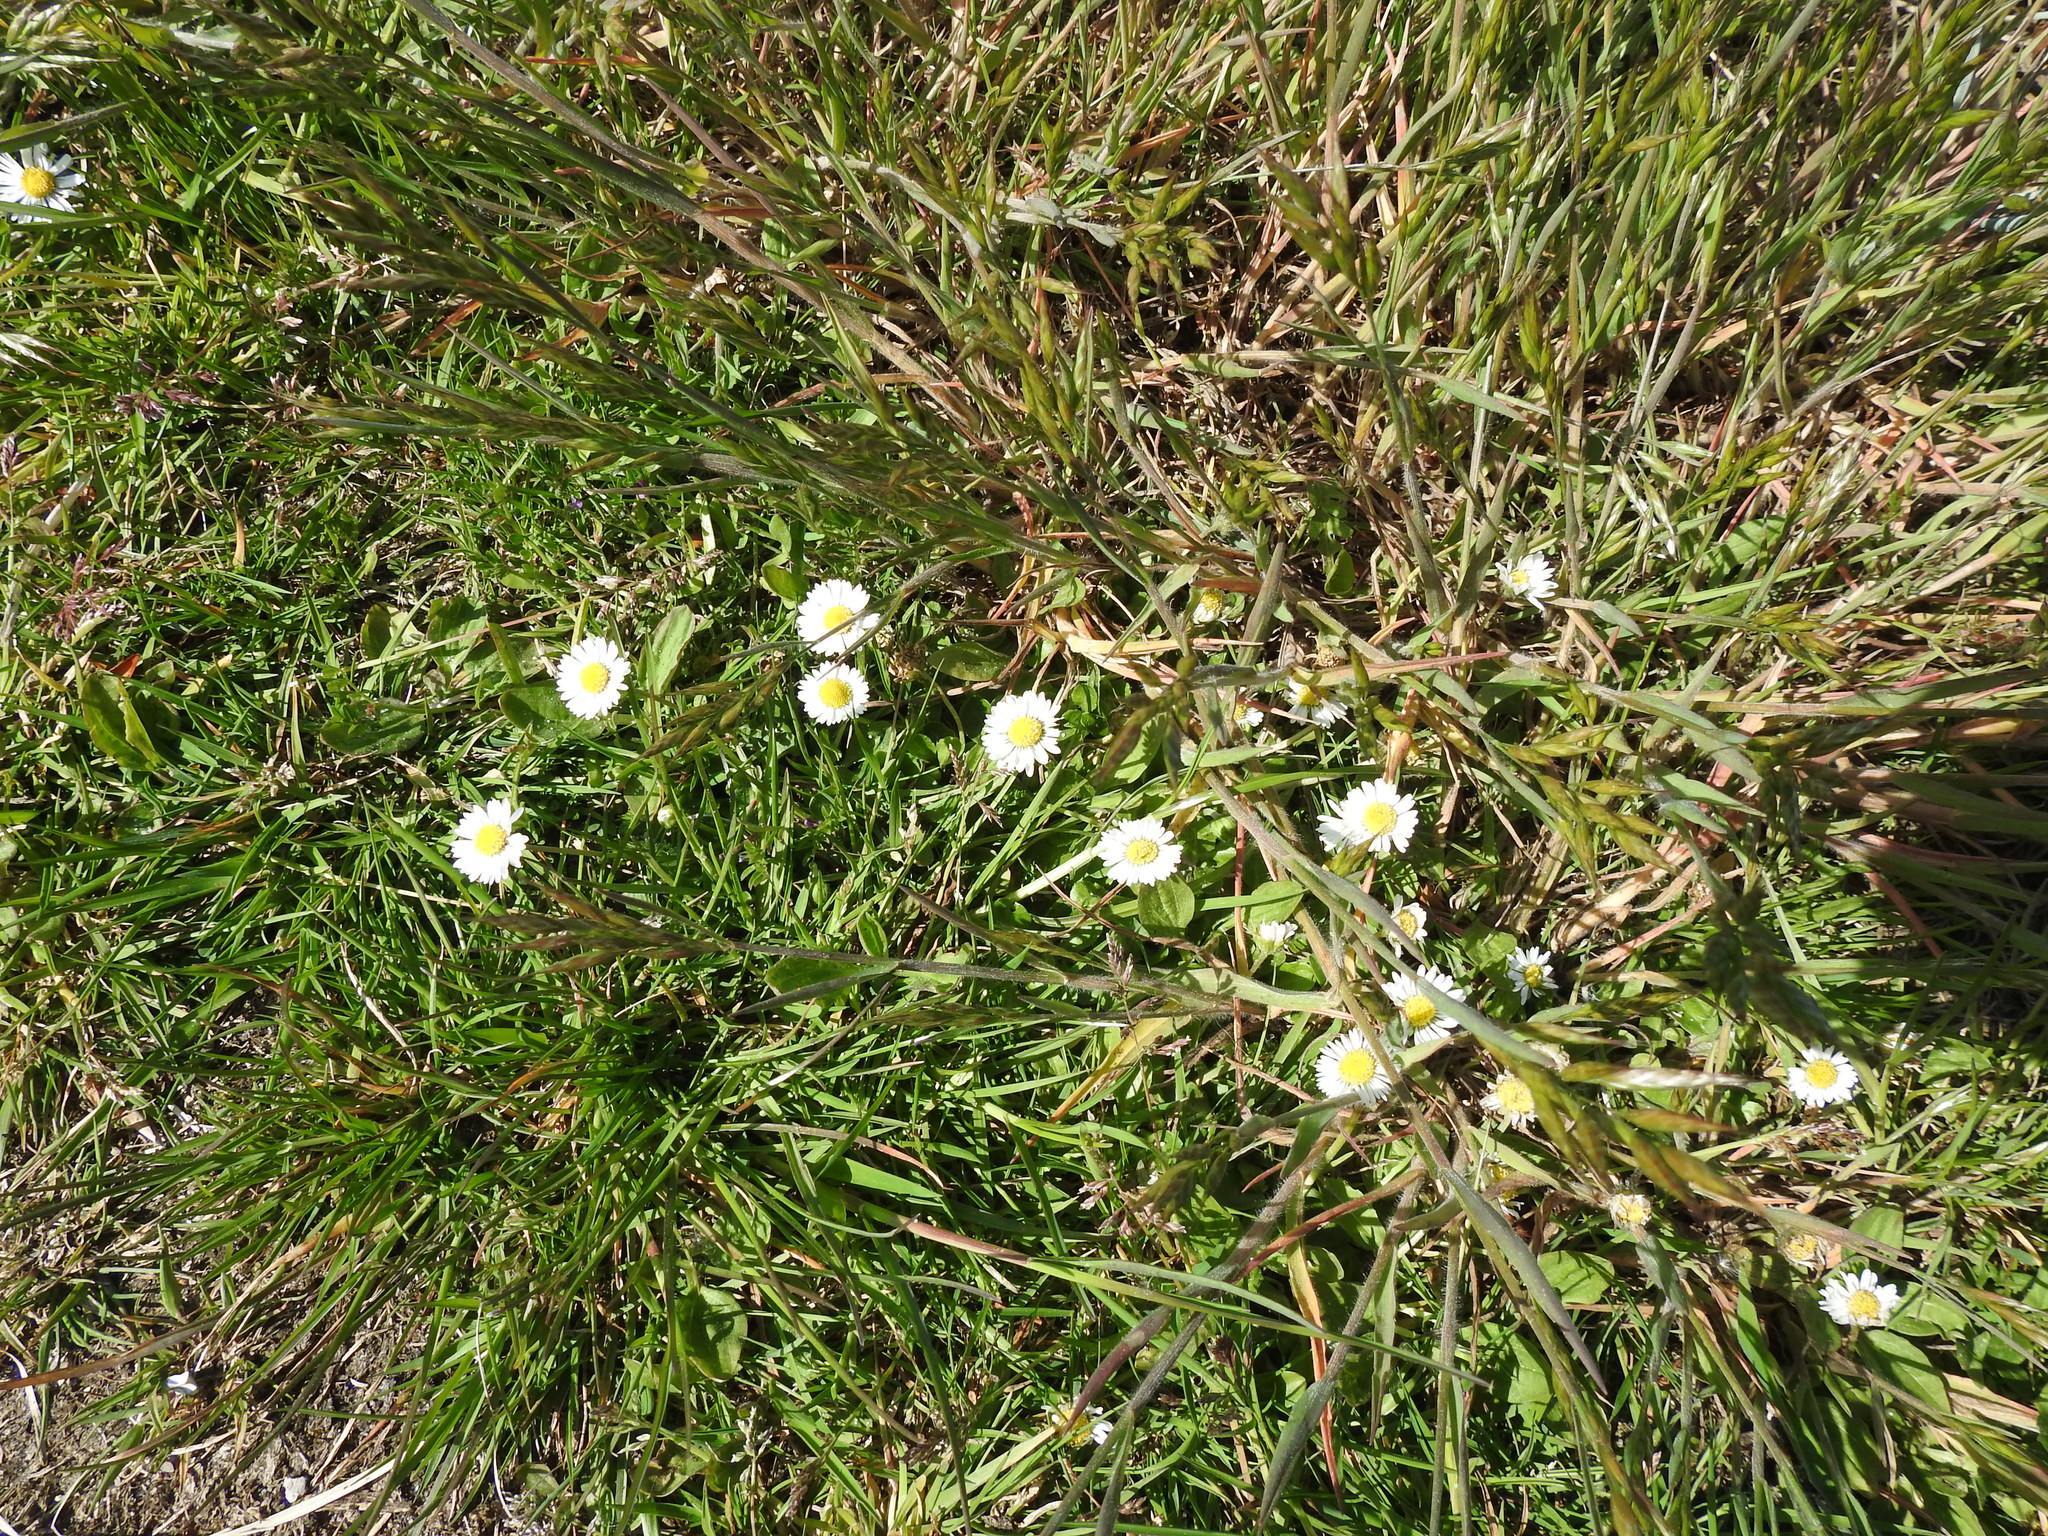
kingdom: Plantae
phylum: Tracheophyta
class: Magnoliopsida
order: Asterales
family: Asteraceae
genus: Bellis
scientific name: Bellis perennis
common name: Lawndaisy
